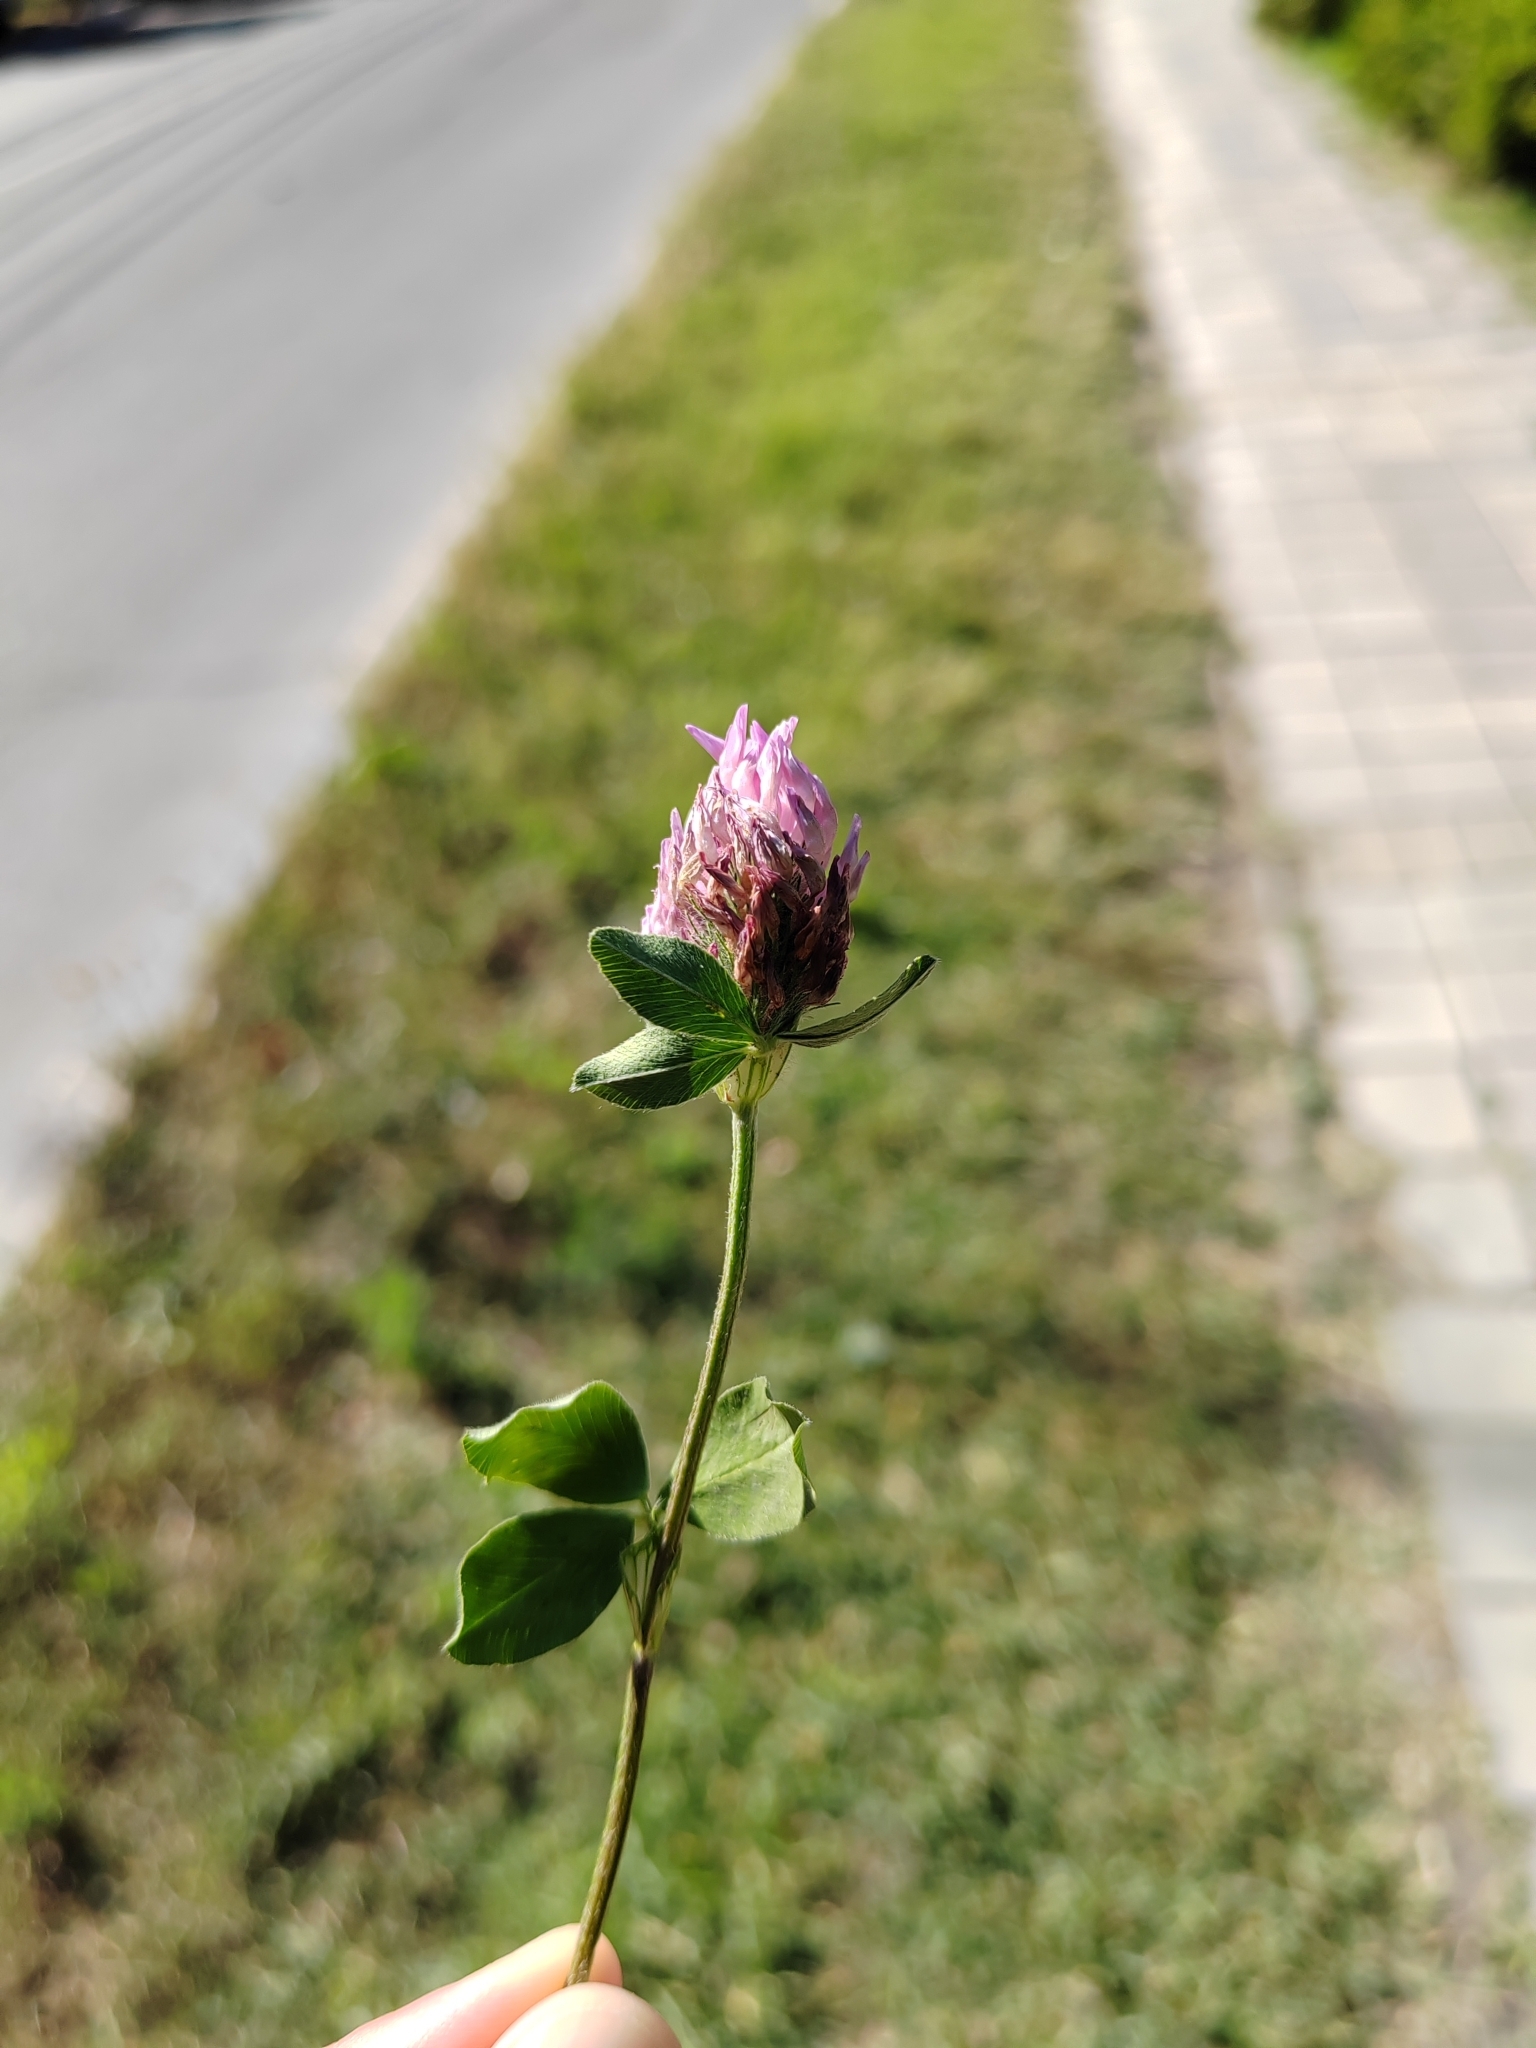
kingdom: Plantae
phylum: Tracheophyta
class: Magnoliopsida
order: Fabales
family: Fabaceae
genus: Trifolium
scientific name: Trifolium pratense
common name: Red clover
